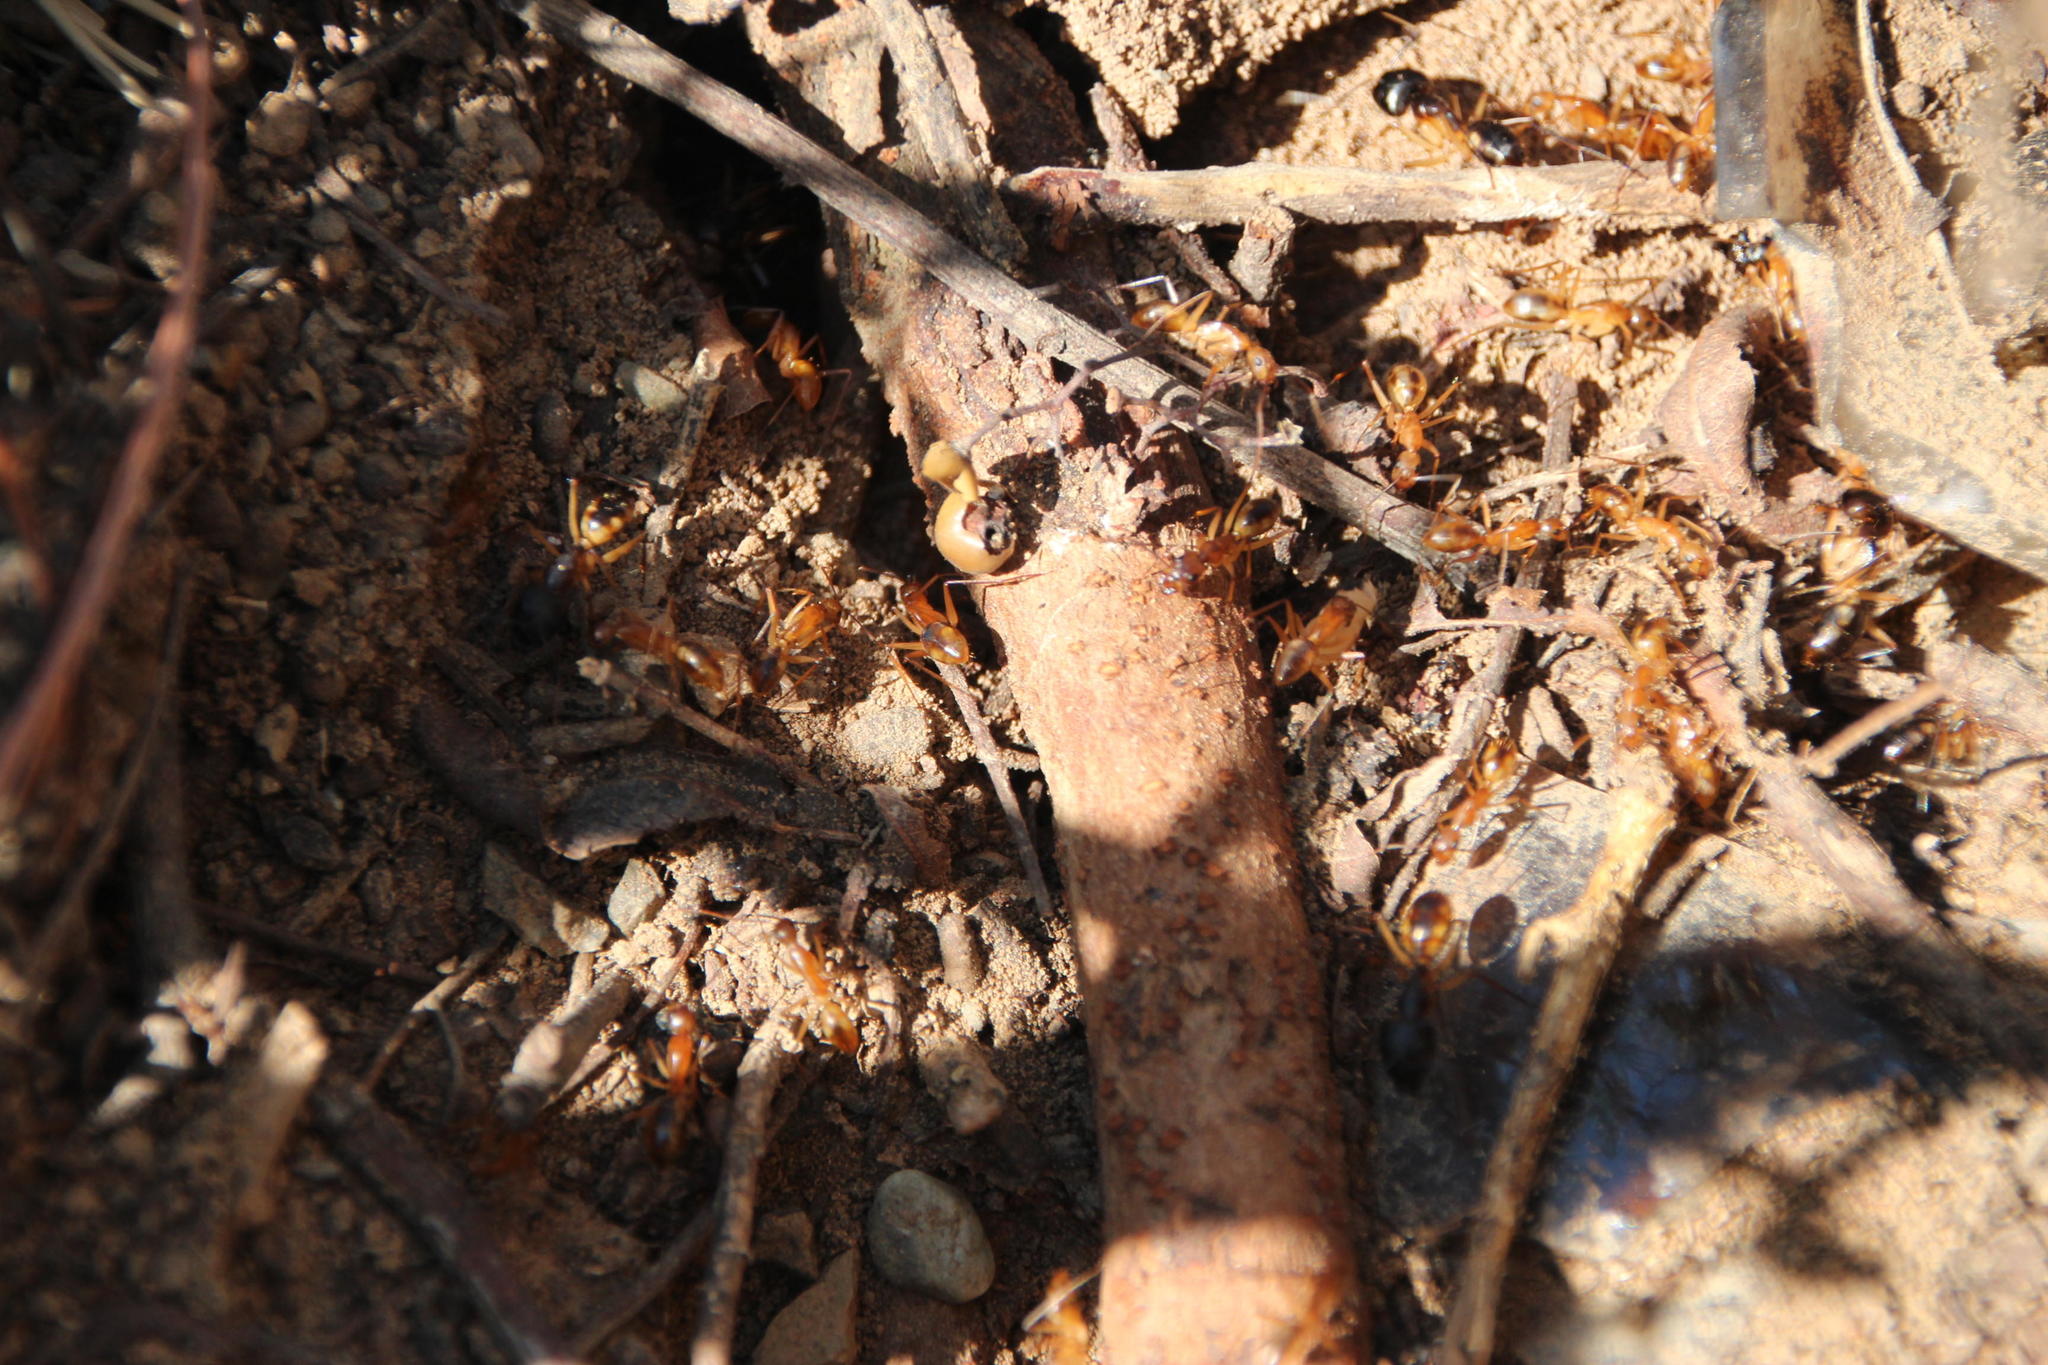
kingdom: Animalia
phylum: Arthropoda
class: Insecta
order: Hymenoptera
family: Formicidae
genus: Camponotus
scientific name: Camponotus maculatus
